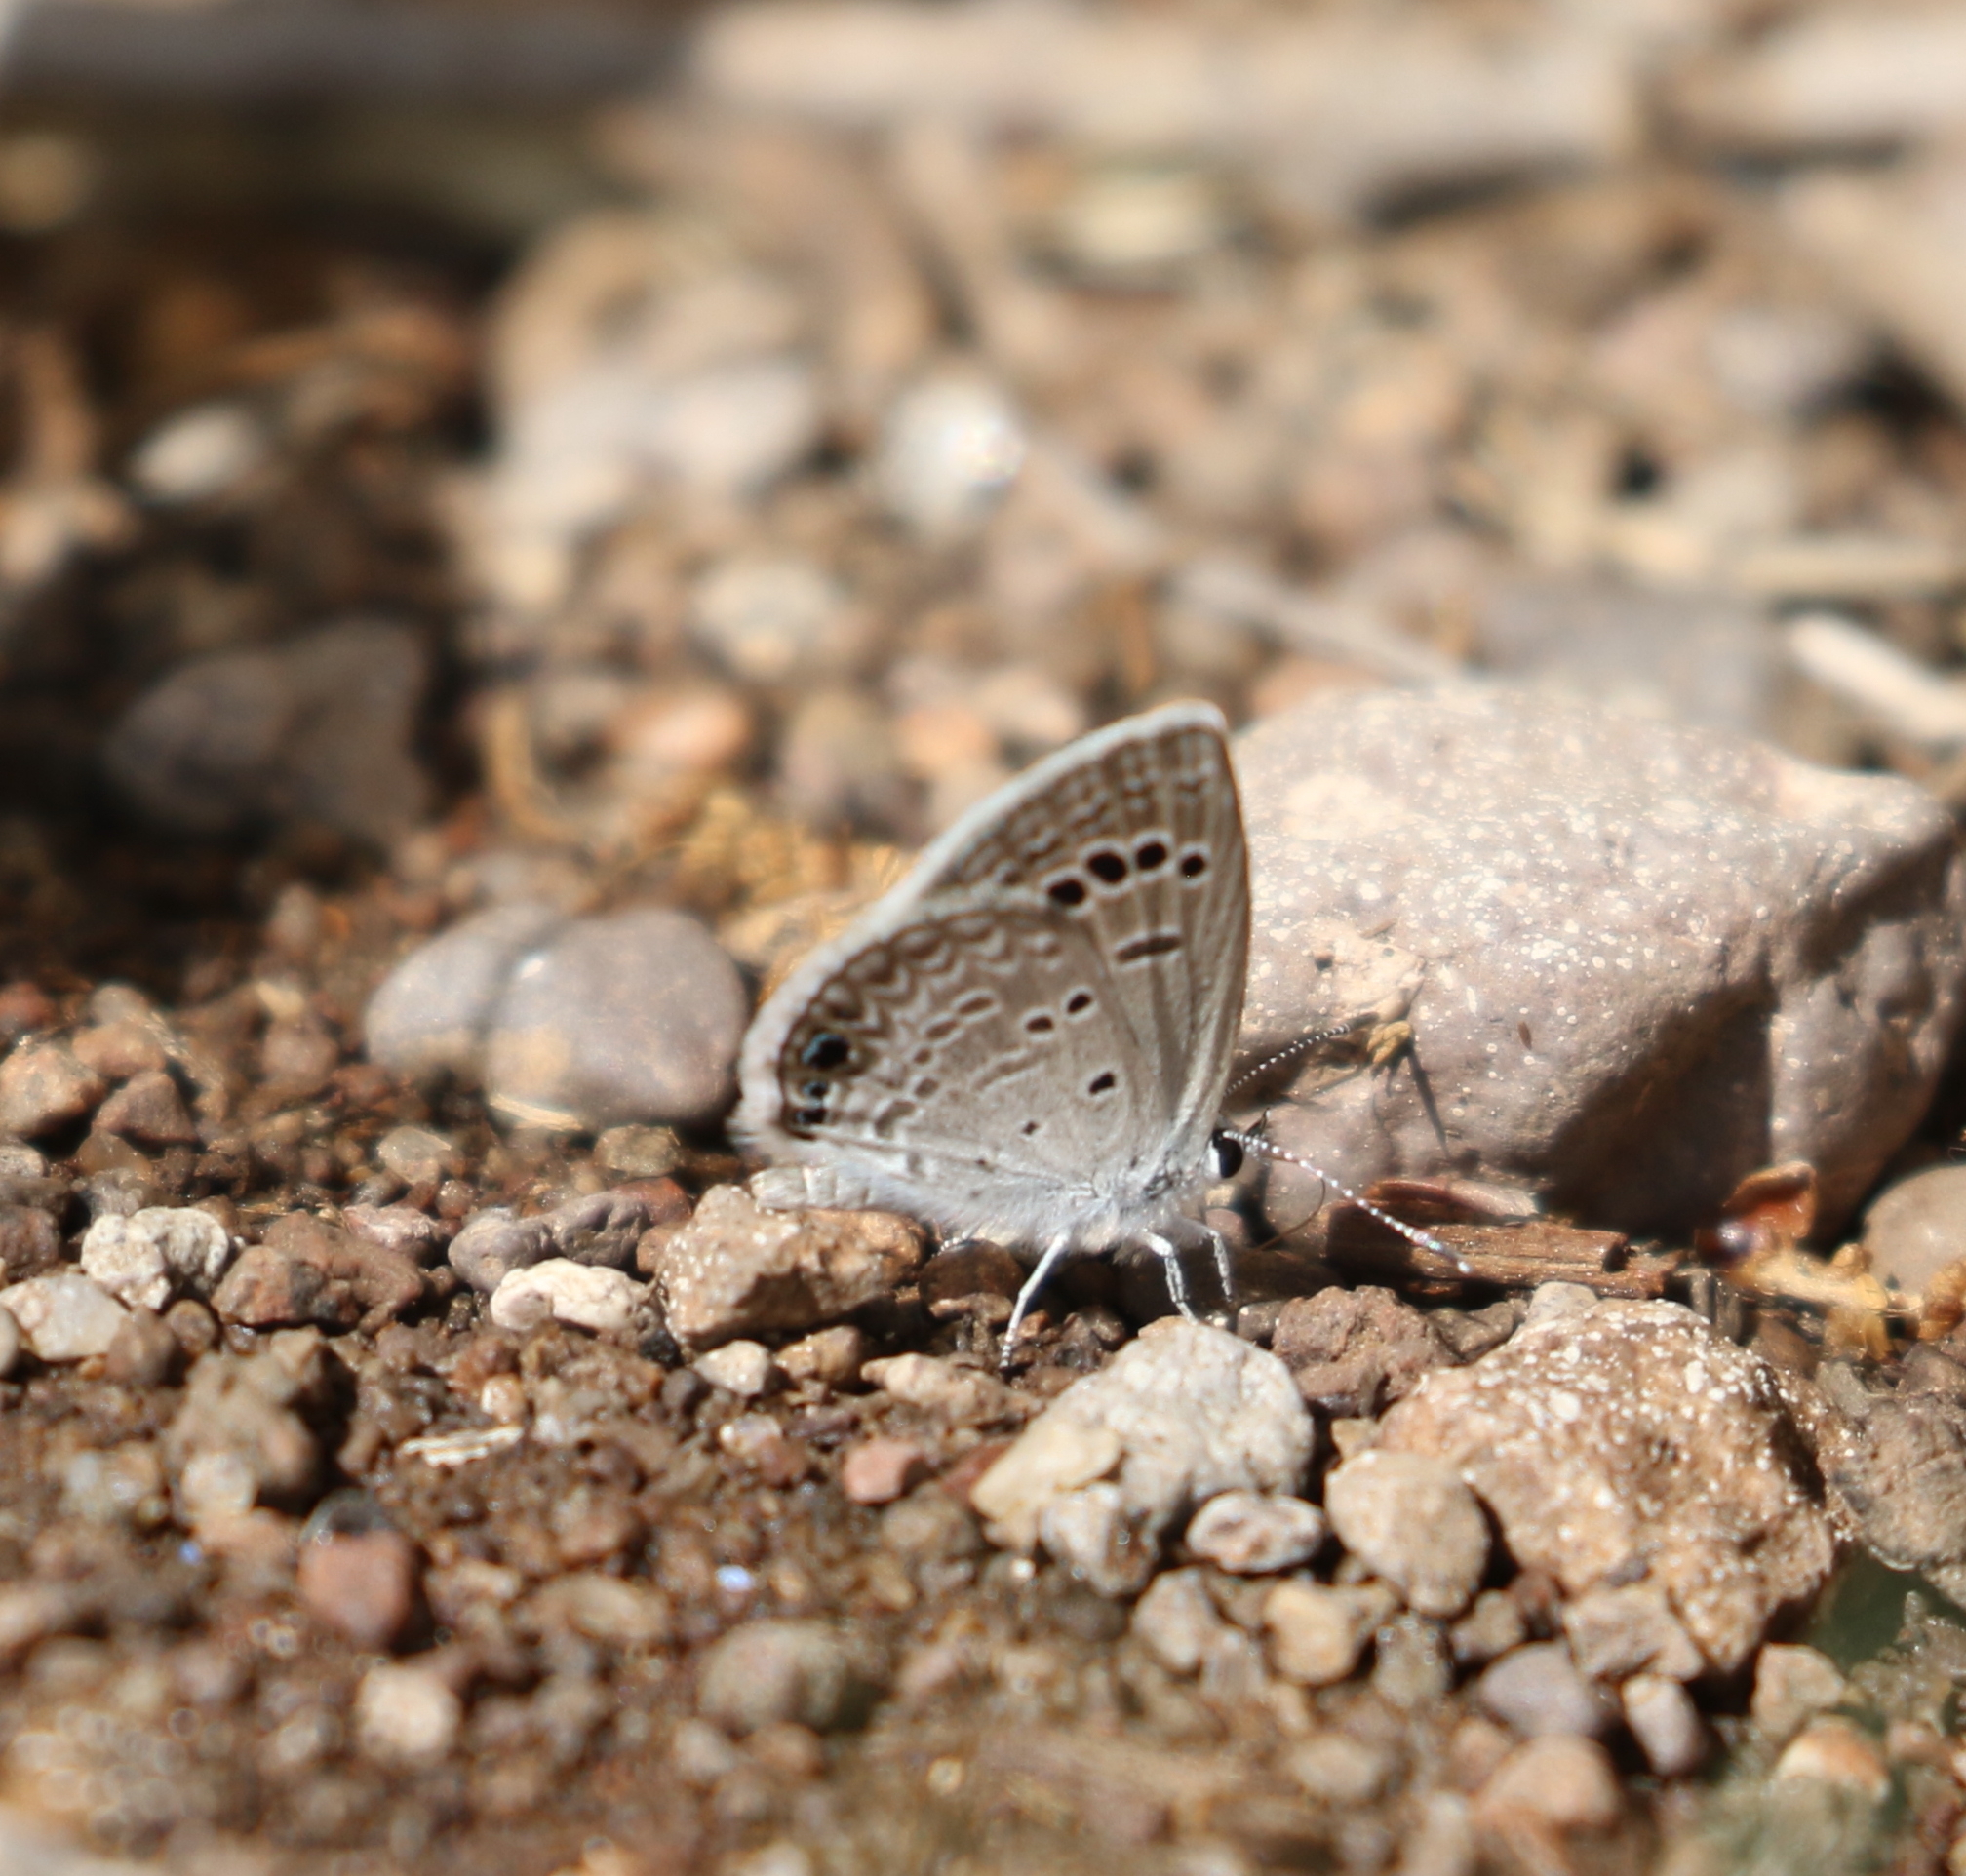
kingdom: Animalia
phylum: Arthropoda
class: Insecta
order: Lepidoptera
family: Lycaenidae
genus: Echinargus
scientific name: Echinargus isola
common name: Reakirt's blue
